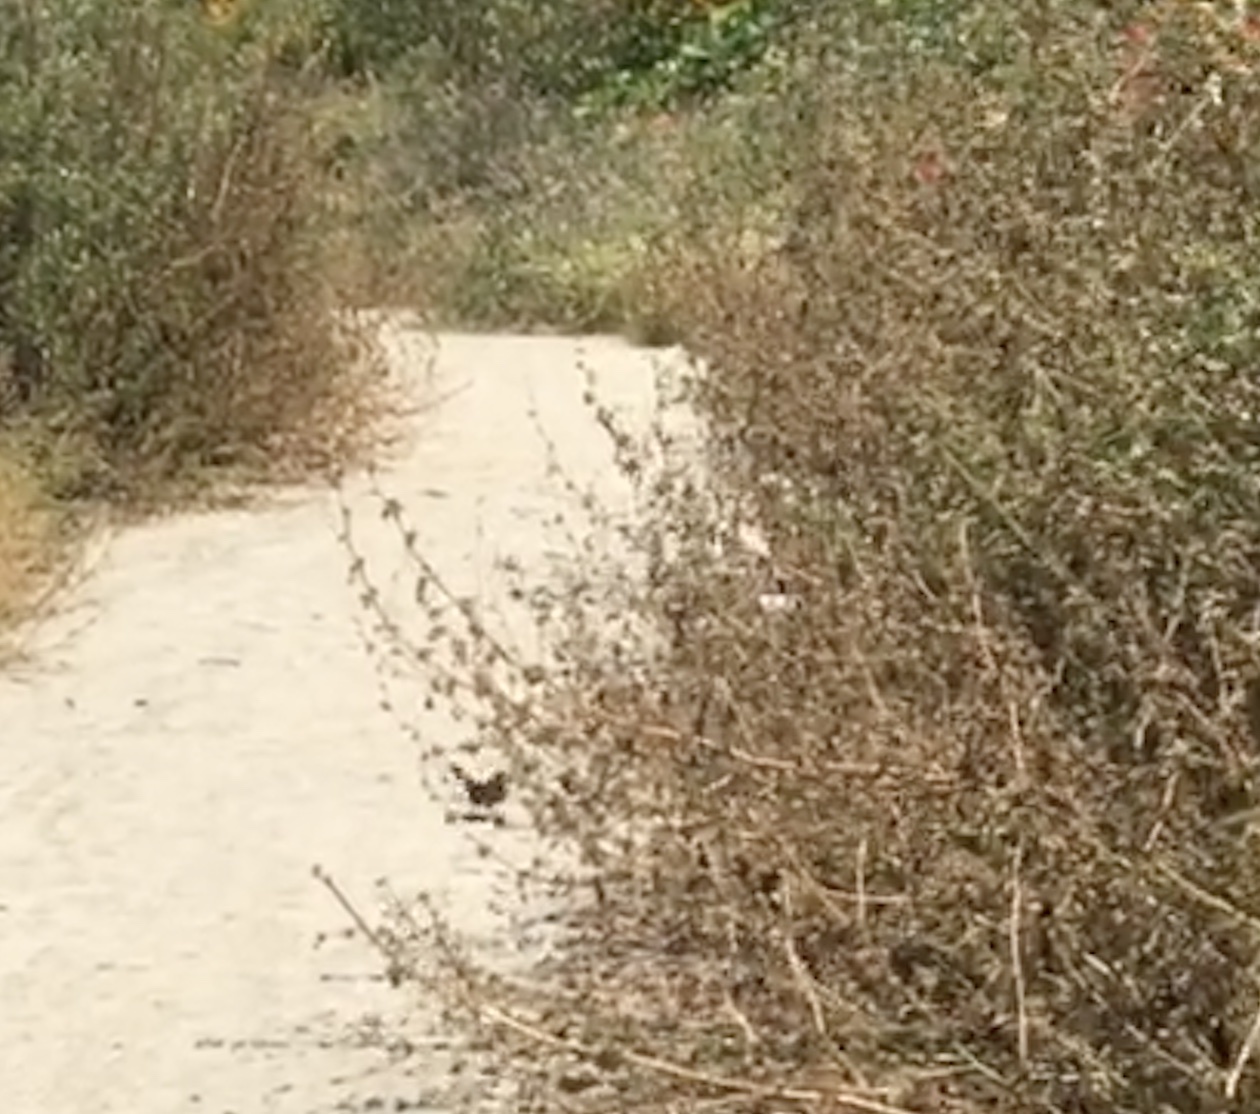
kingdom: Animalia
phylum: Chordata
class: Aves
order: Passeriformes
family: Passerellidae
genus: Melozone
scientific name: Melozone crissalis
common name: California towhee
